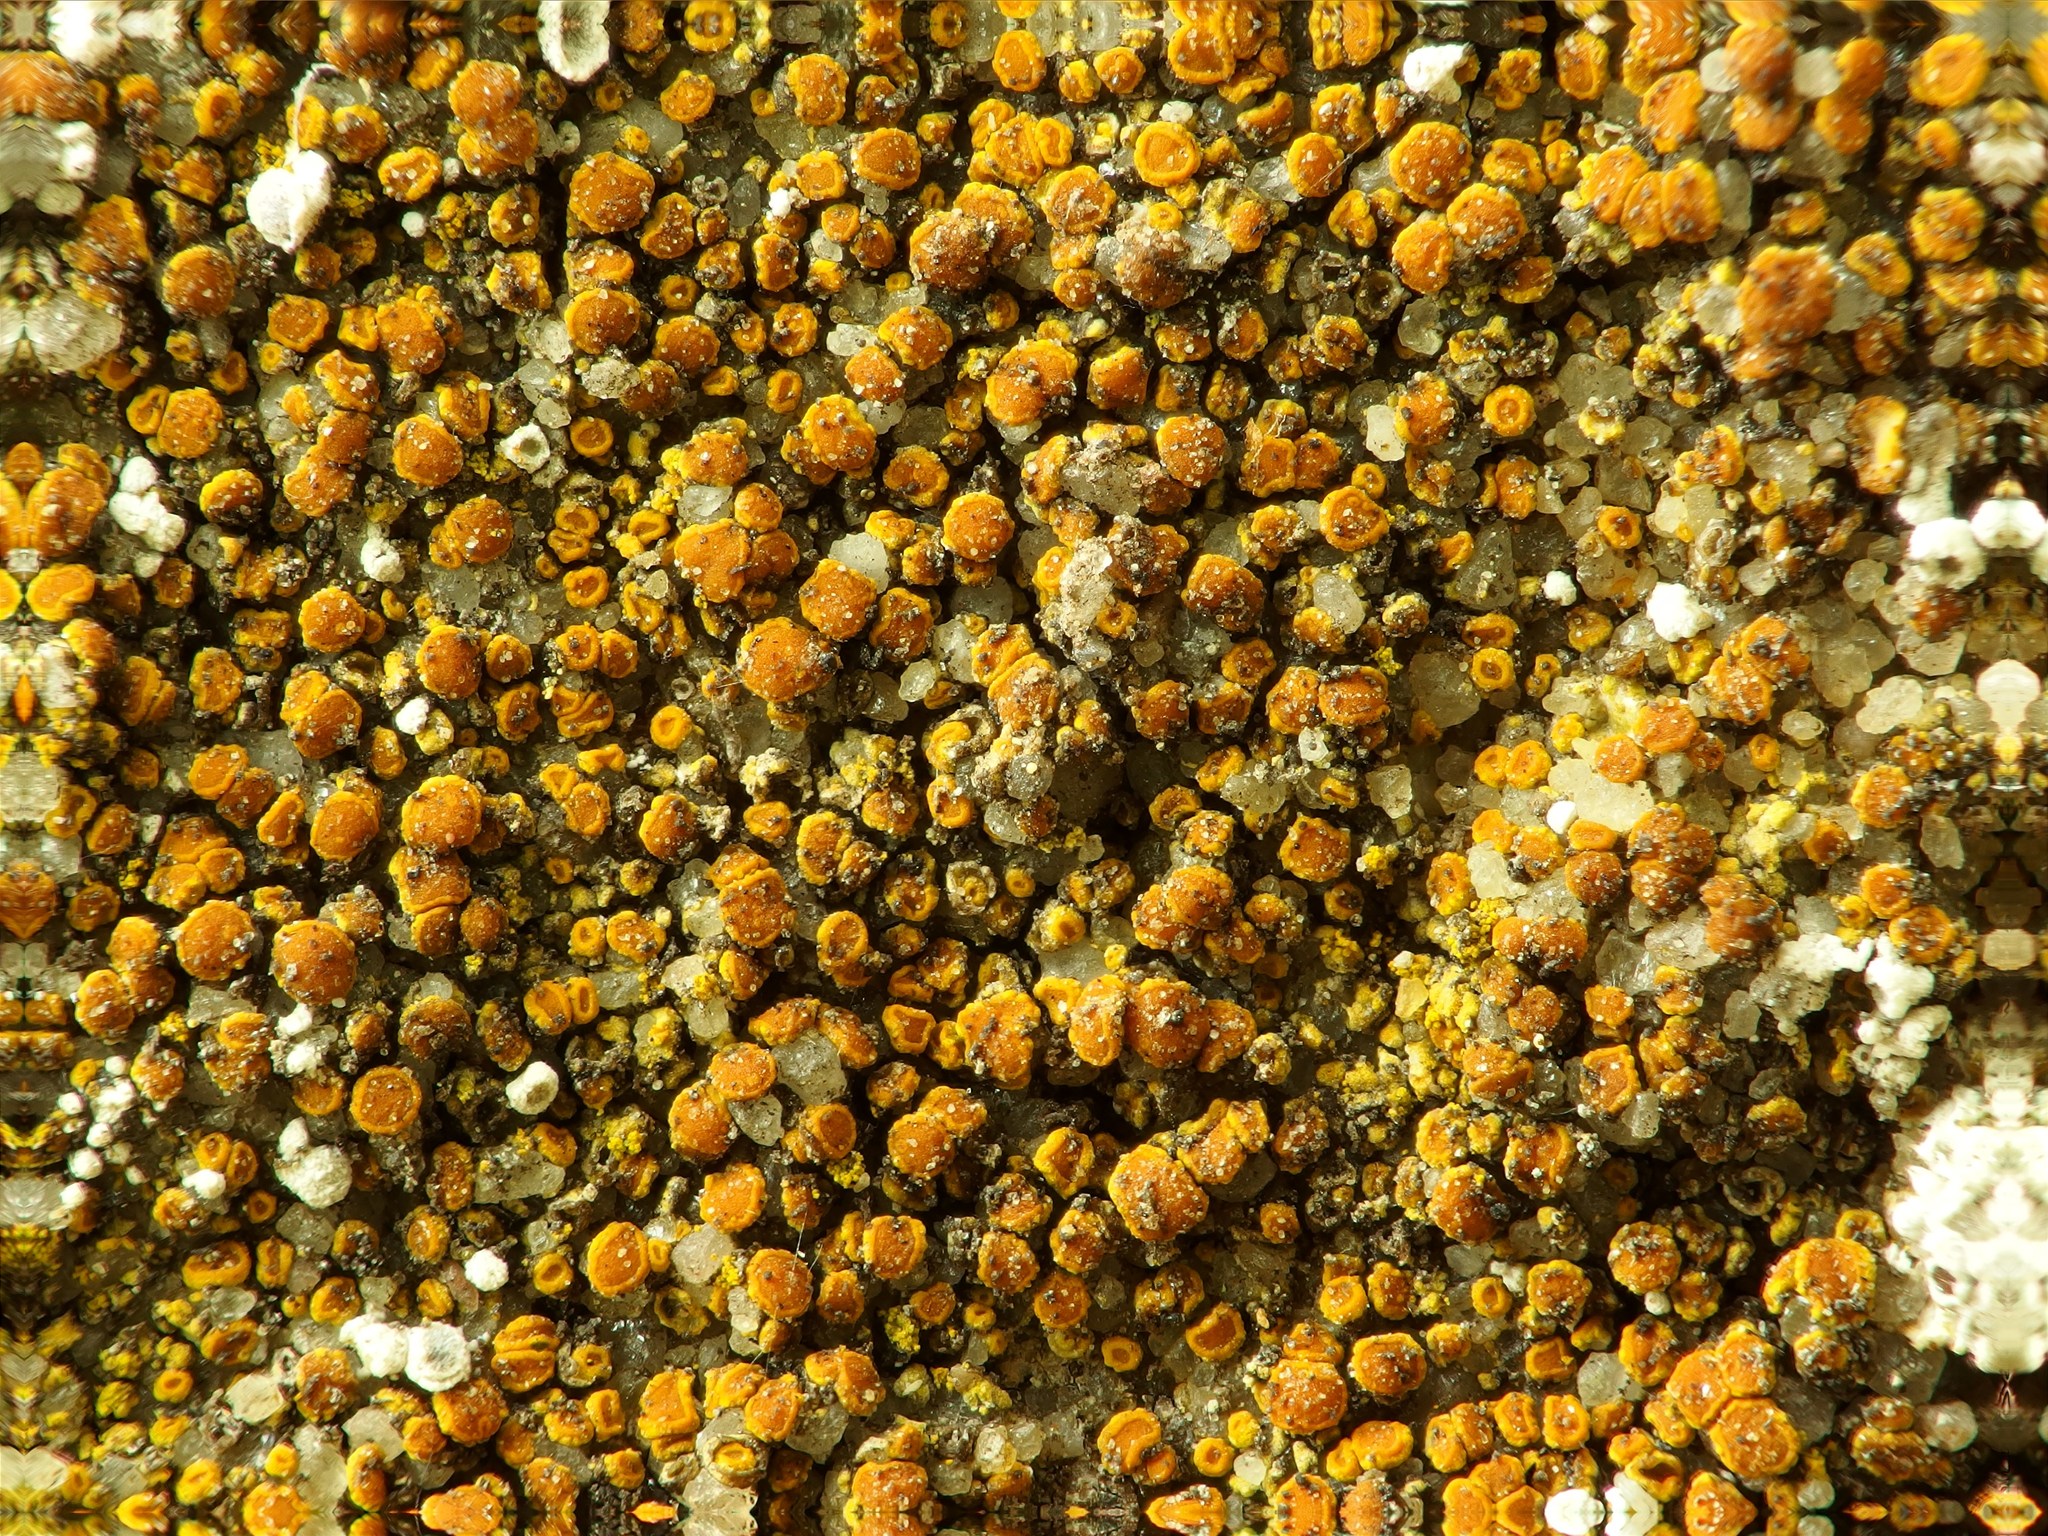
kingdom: Fungi
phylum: Ascomycota
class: Candelariomycetes
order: Candelariales
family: Candelariaceae
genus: Candelariella
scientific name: Candelariella aurella
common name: Hidden goldspeck lichen
